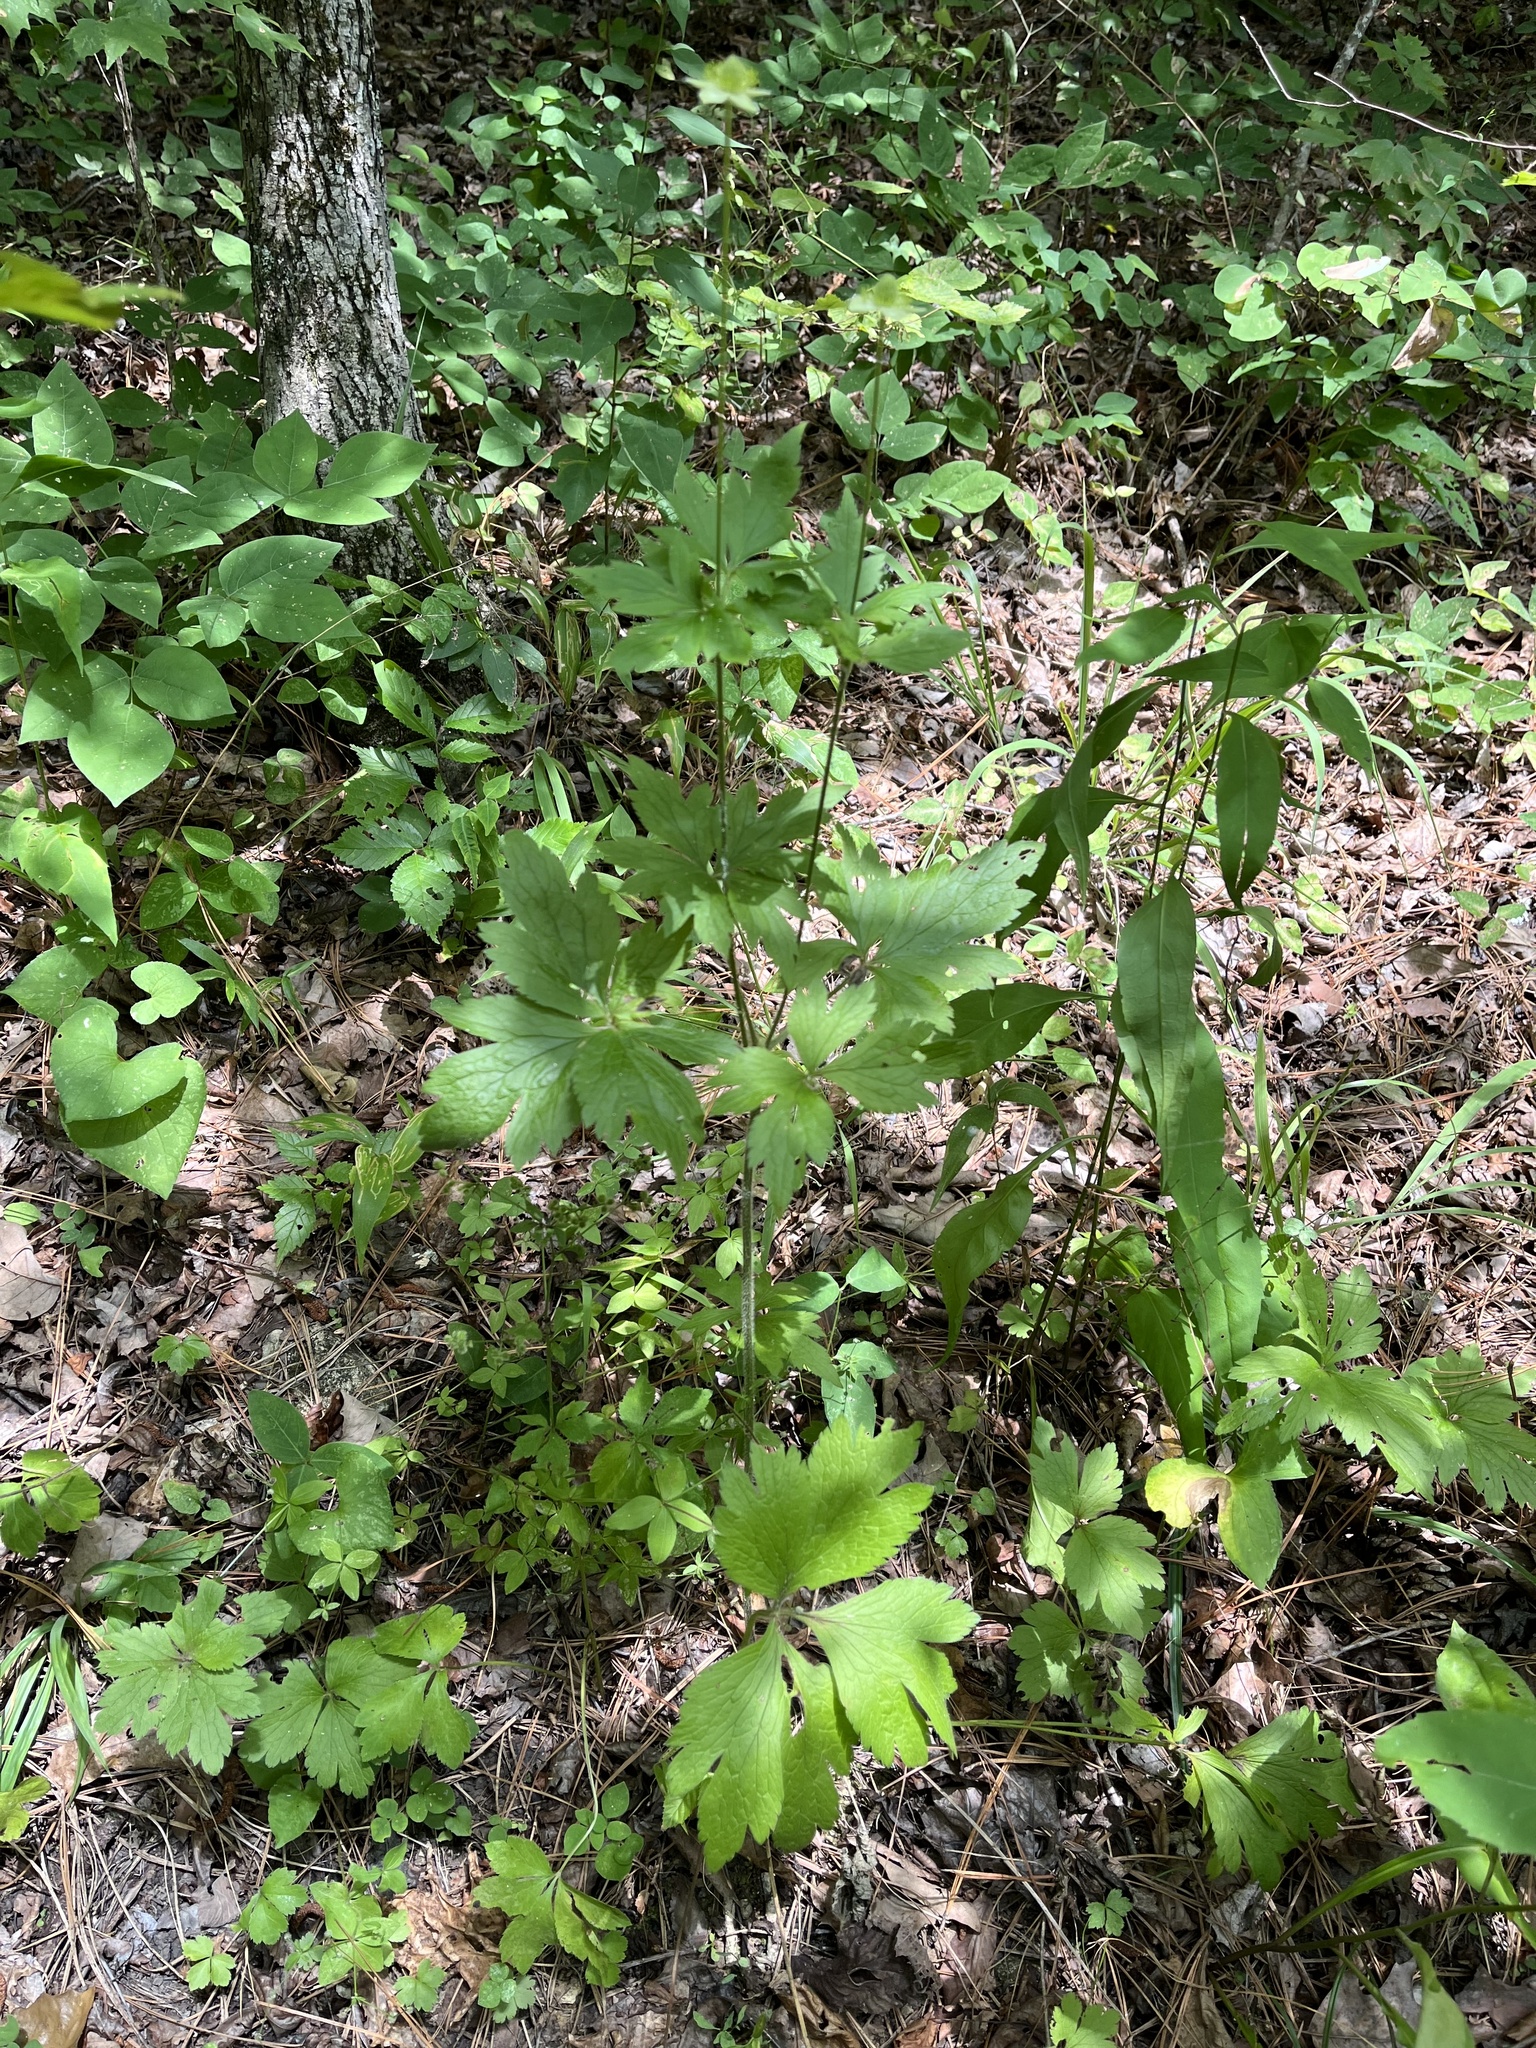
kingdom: Plantae
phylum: Tracheophyta
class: Magnoliopsida
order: Ranunculales
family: Ranunculaceae
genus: Anemone
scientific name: Anemone virginiana
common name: Tall anemone
